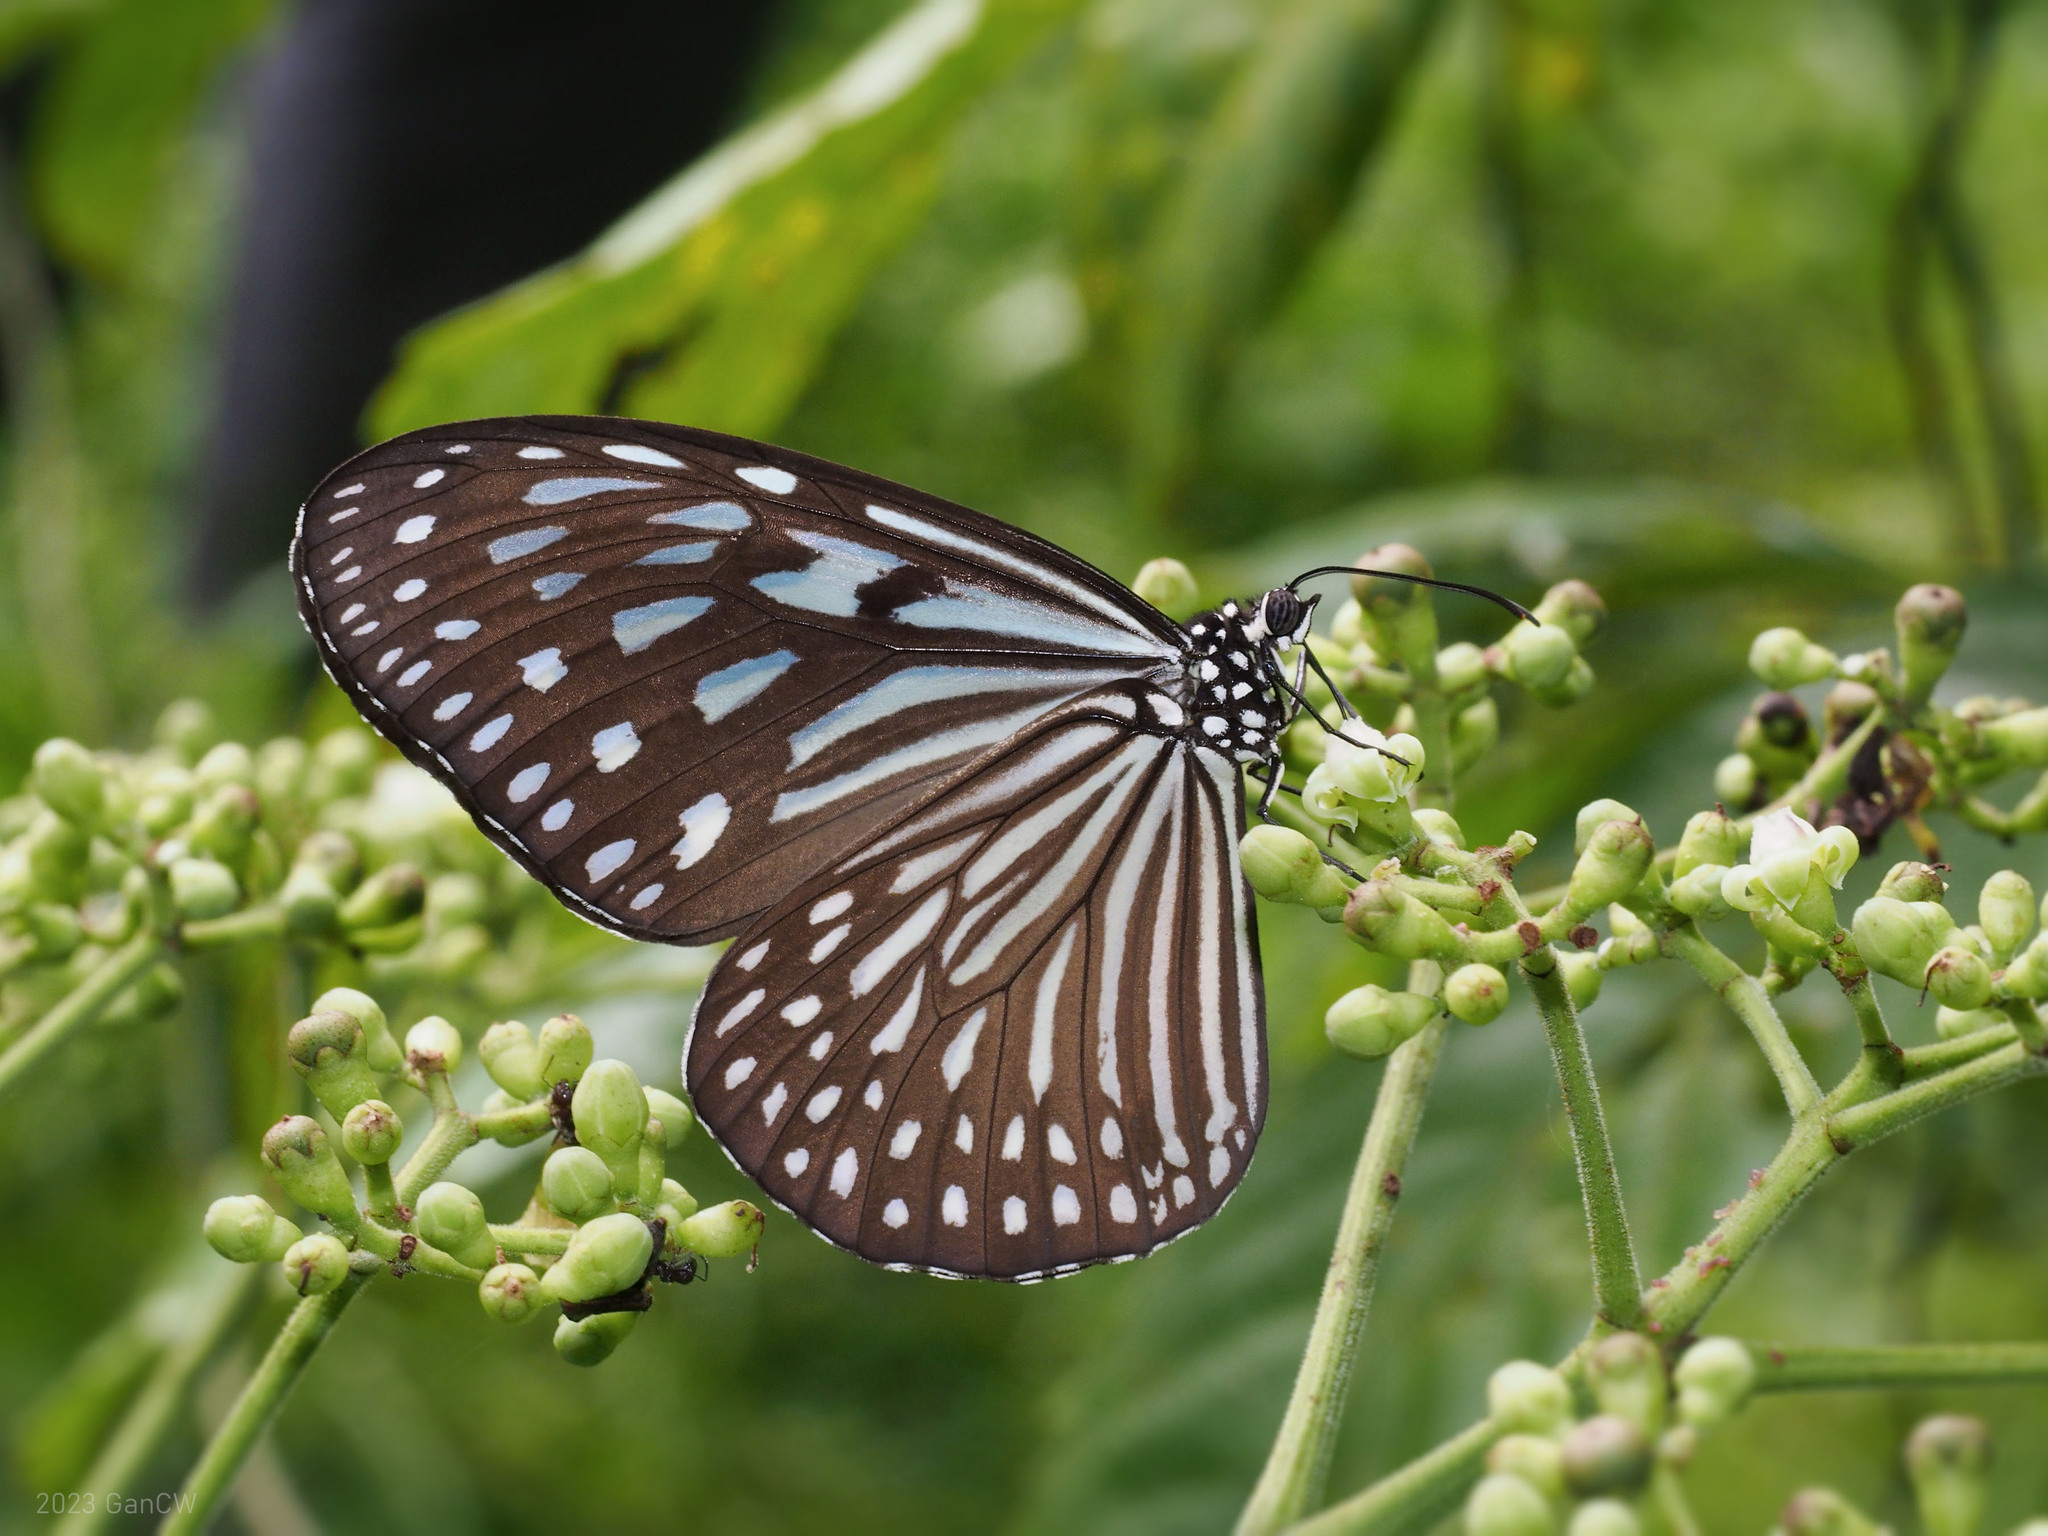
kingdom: Animalia
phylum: Arthropoda
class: Insecta
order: Lepidoptera
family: Nymphalidae
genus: Ideopsis
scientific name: Ideopsis vulgaris
